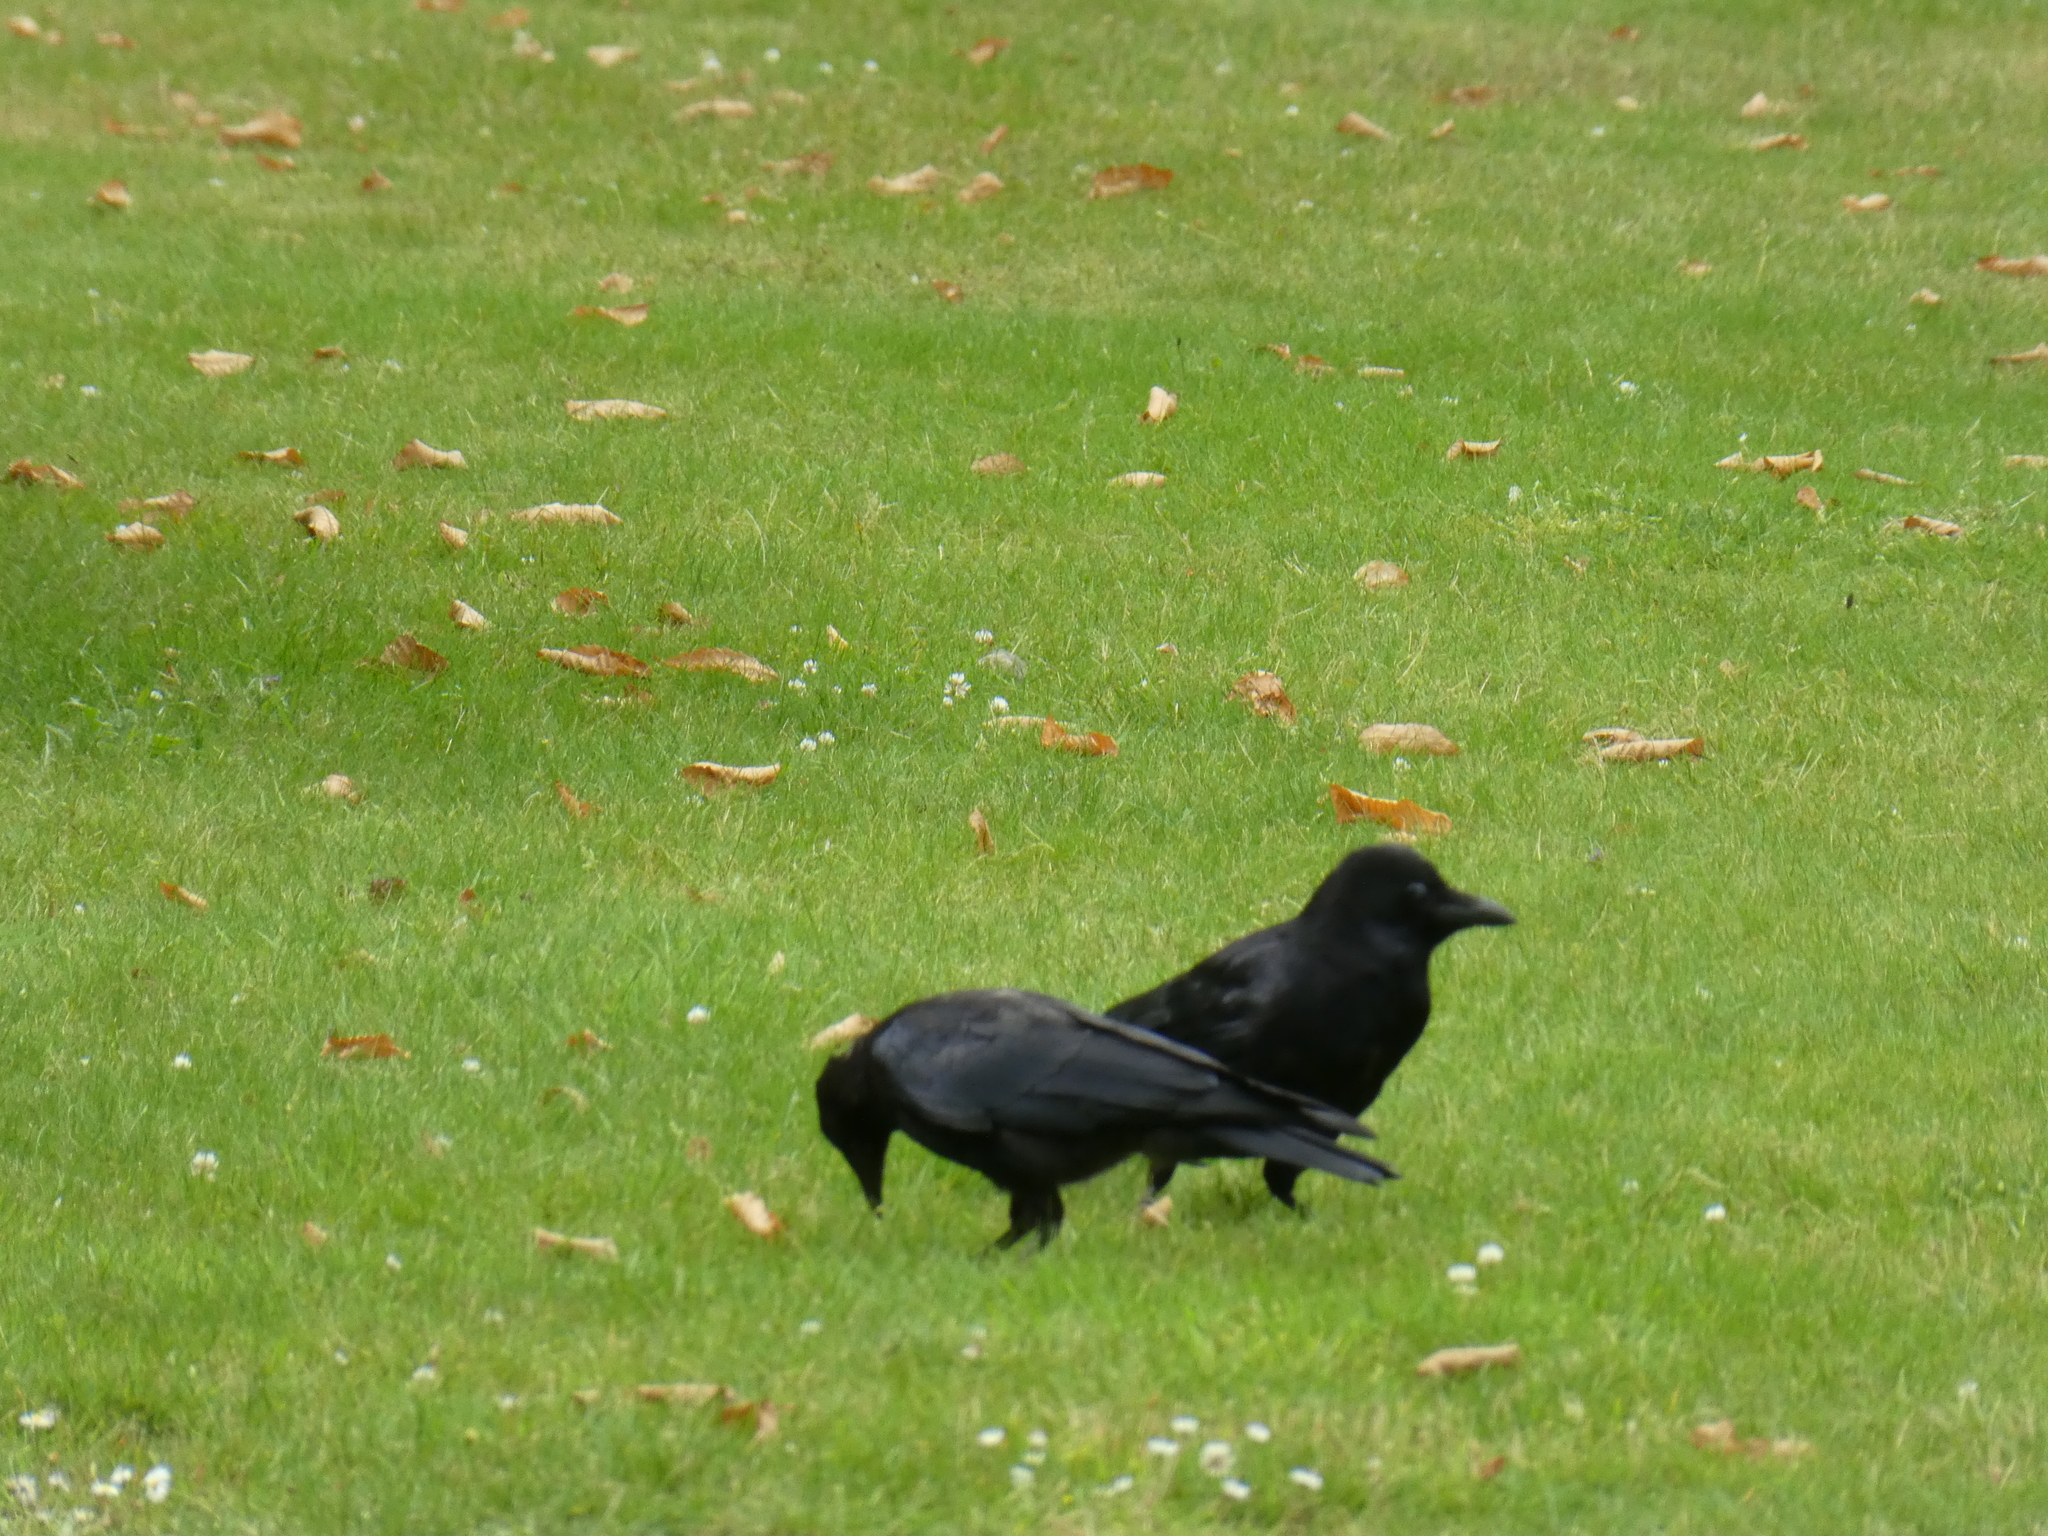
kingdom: Animalia
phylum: Chordata
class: Aves
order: Passeriformes
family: Corvidae
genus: Corvus
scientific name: Corvus corone
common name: Carrion crow
